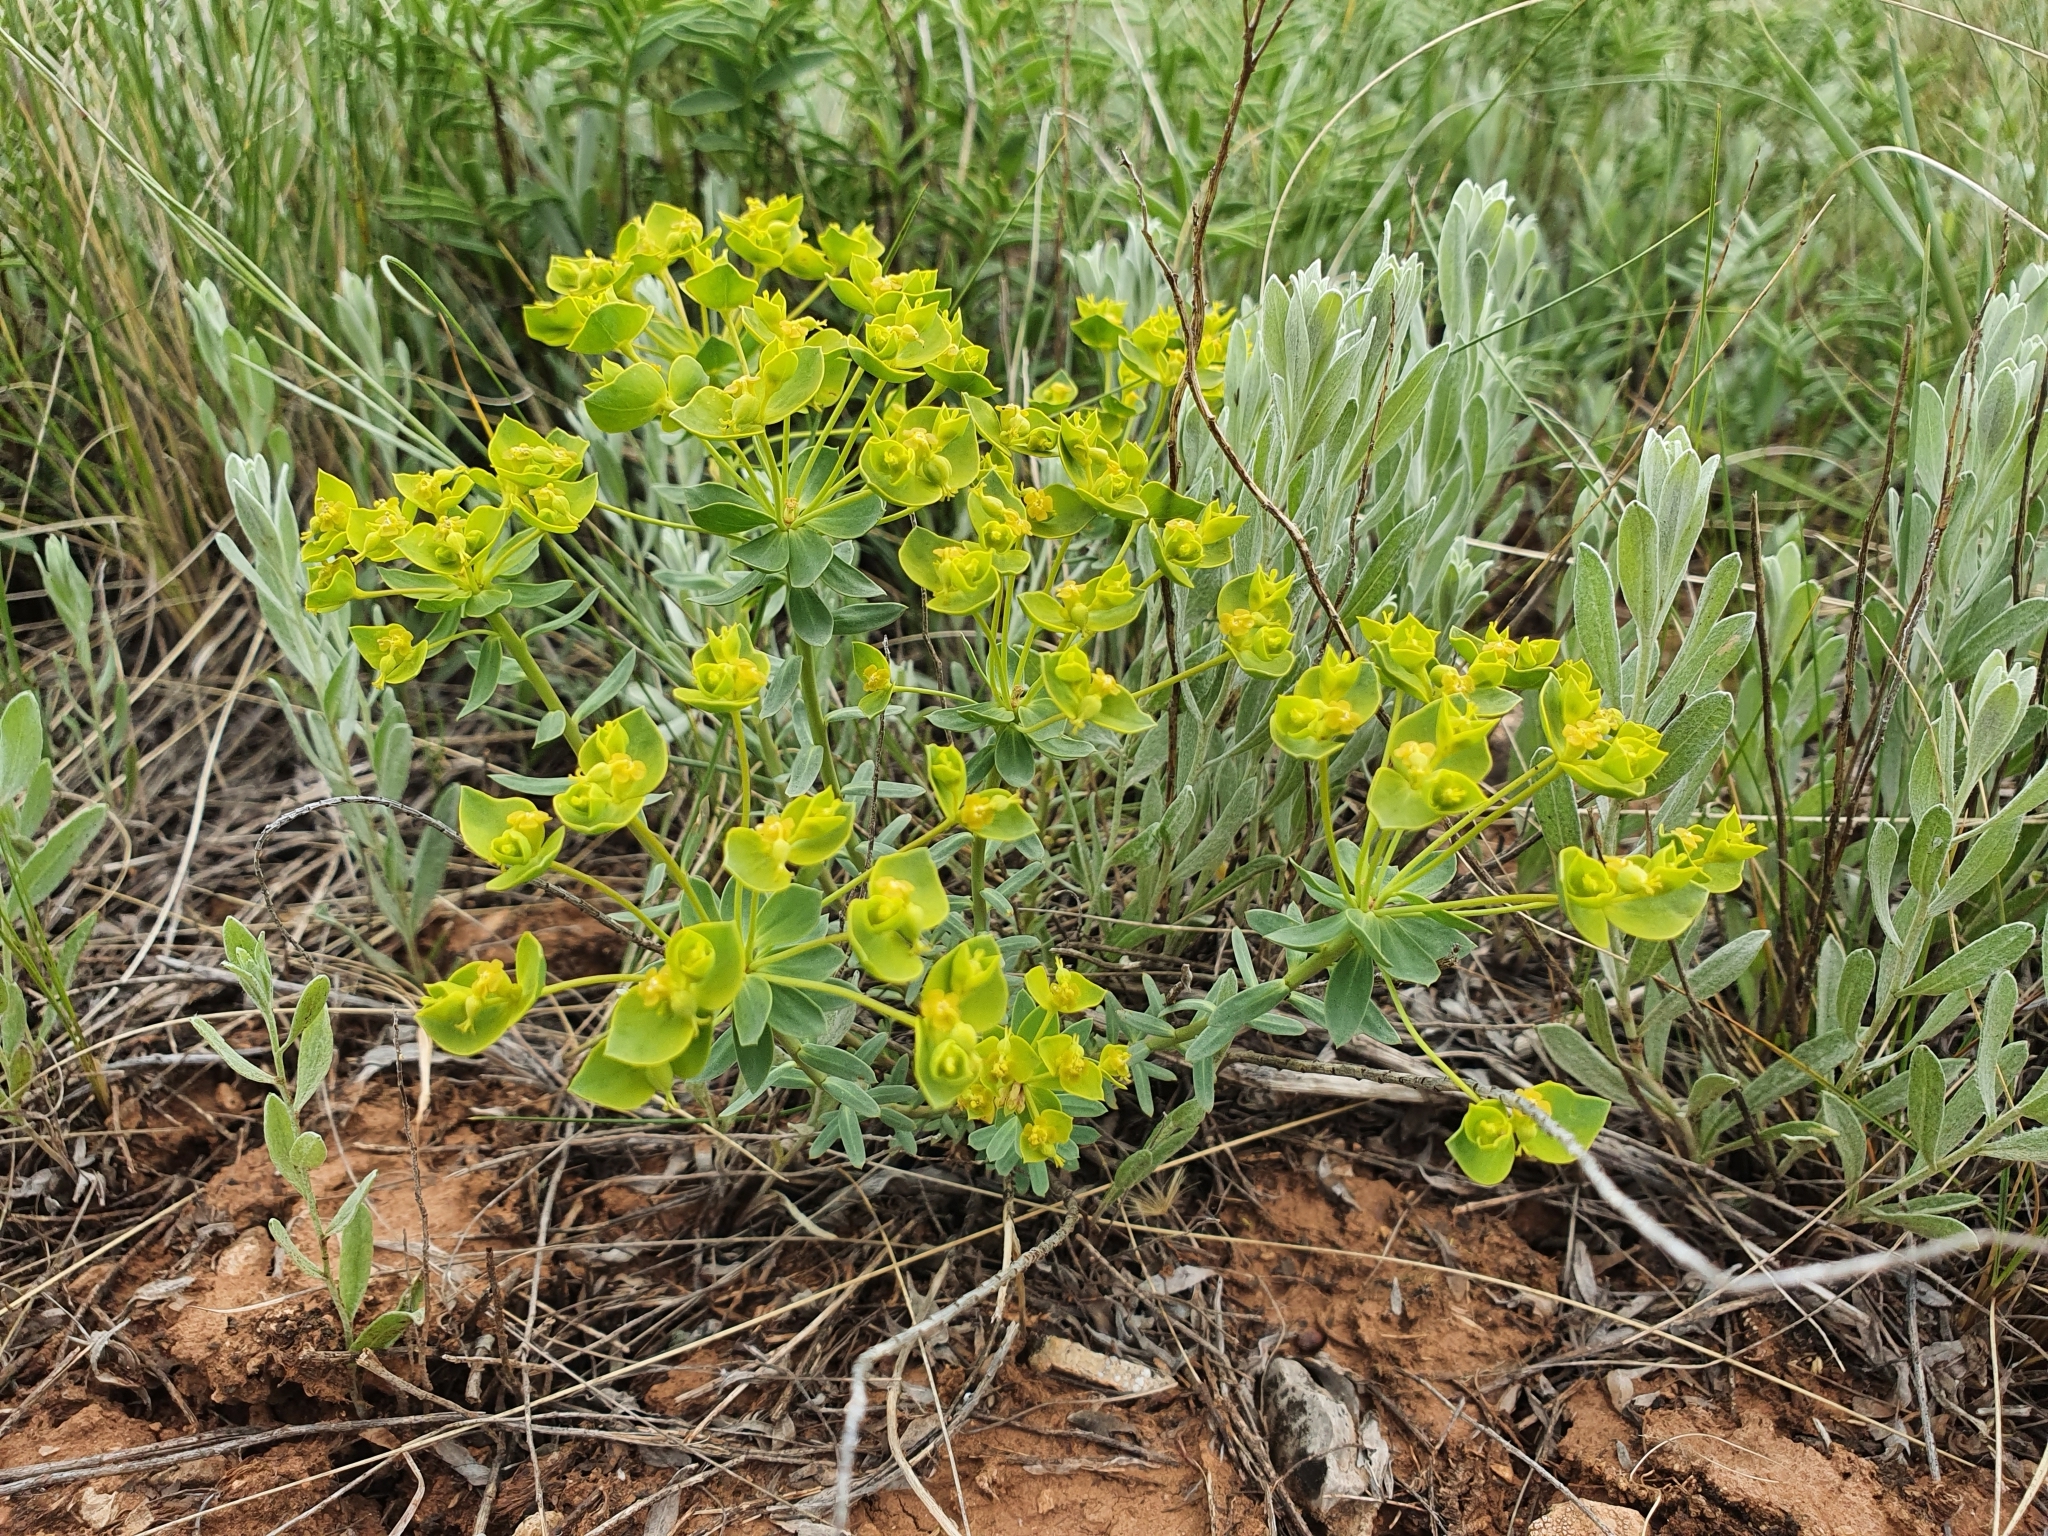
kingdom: Plantae
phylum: Tracheophyta
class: Magnoliopsida
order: Malpighiales
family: Euphorbiaceae
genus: Euphorbia
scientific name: Euphorbia seguieriana
